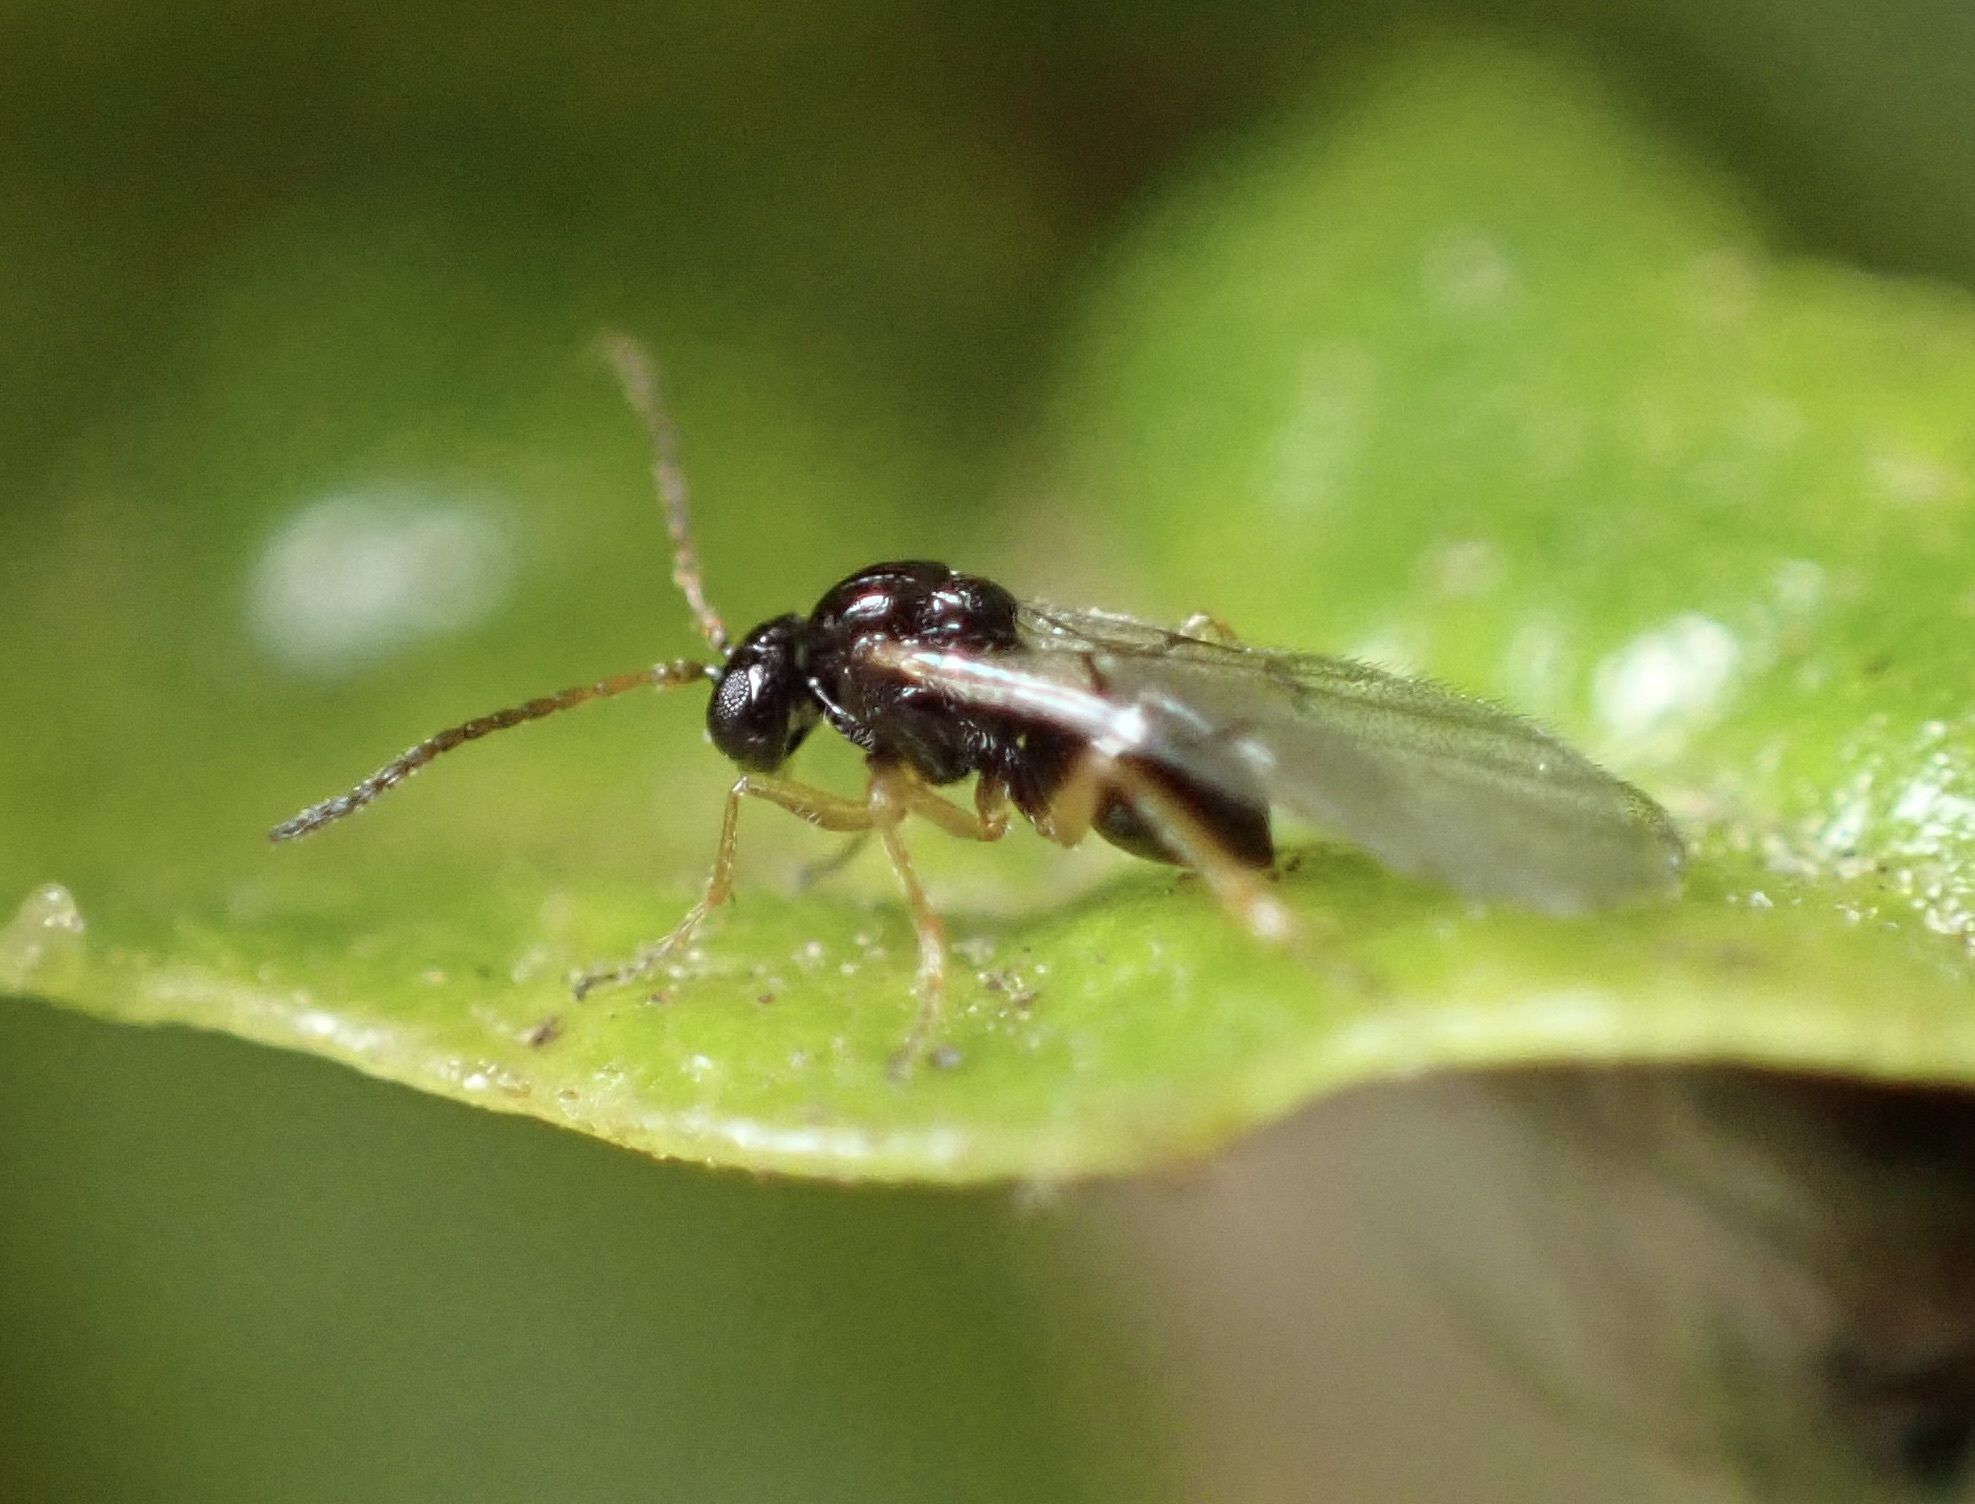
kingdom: Animalia
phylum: Arthropoda
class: Insecta
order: Hymenoptera
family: Cynipidae
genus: Dryocosmus
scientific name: Dryocosmus
